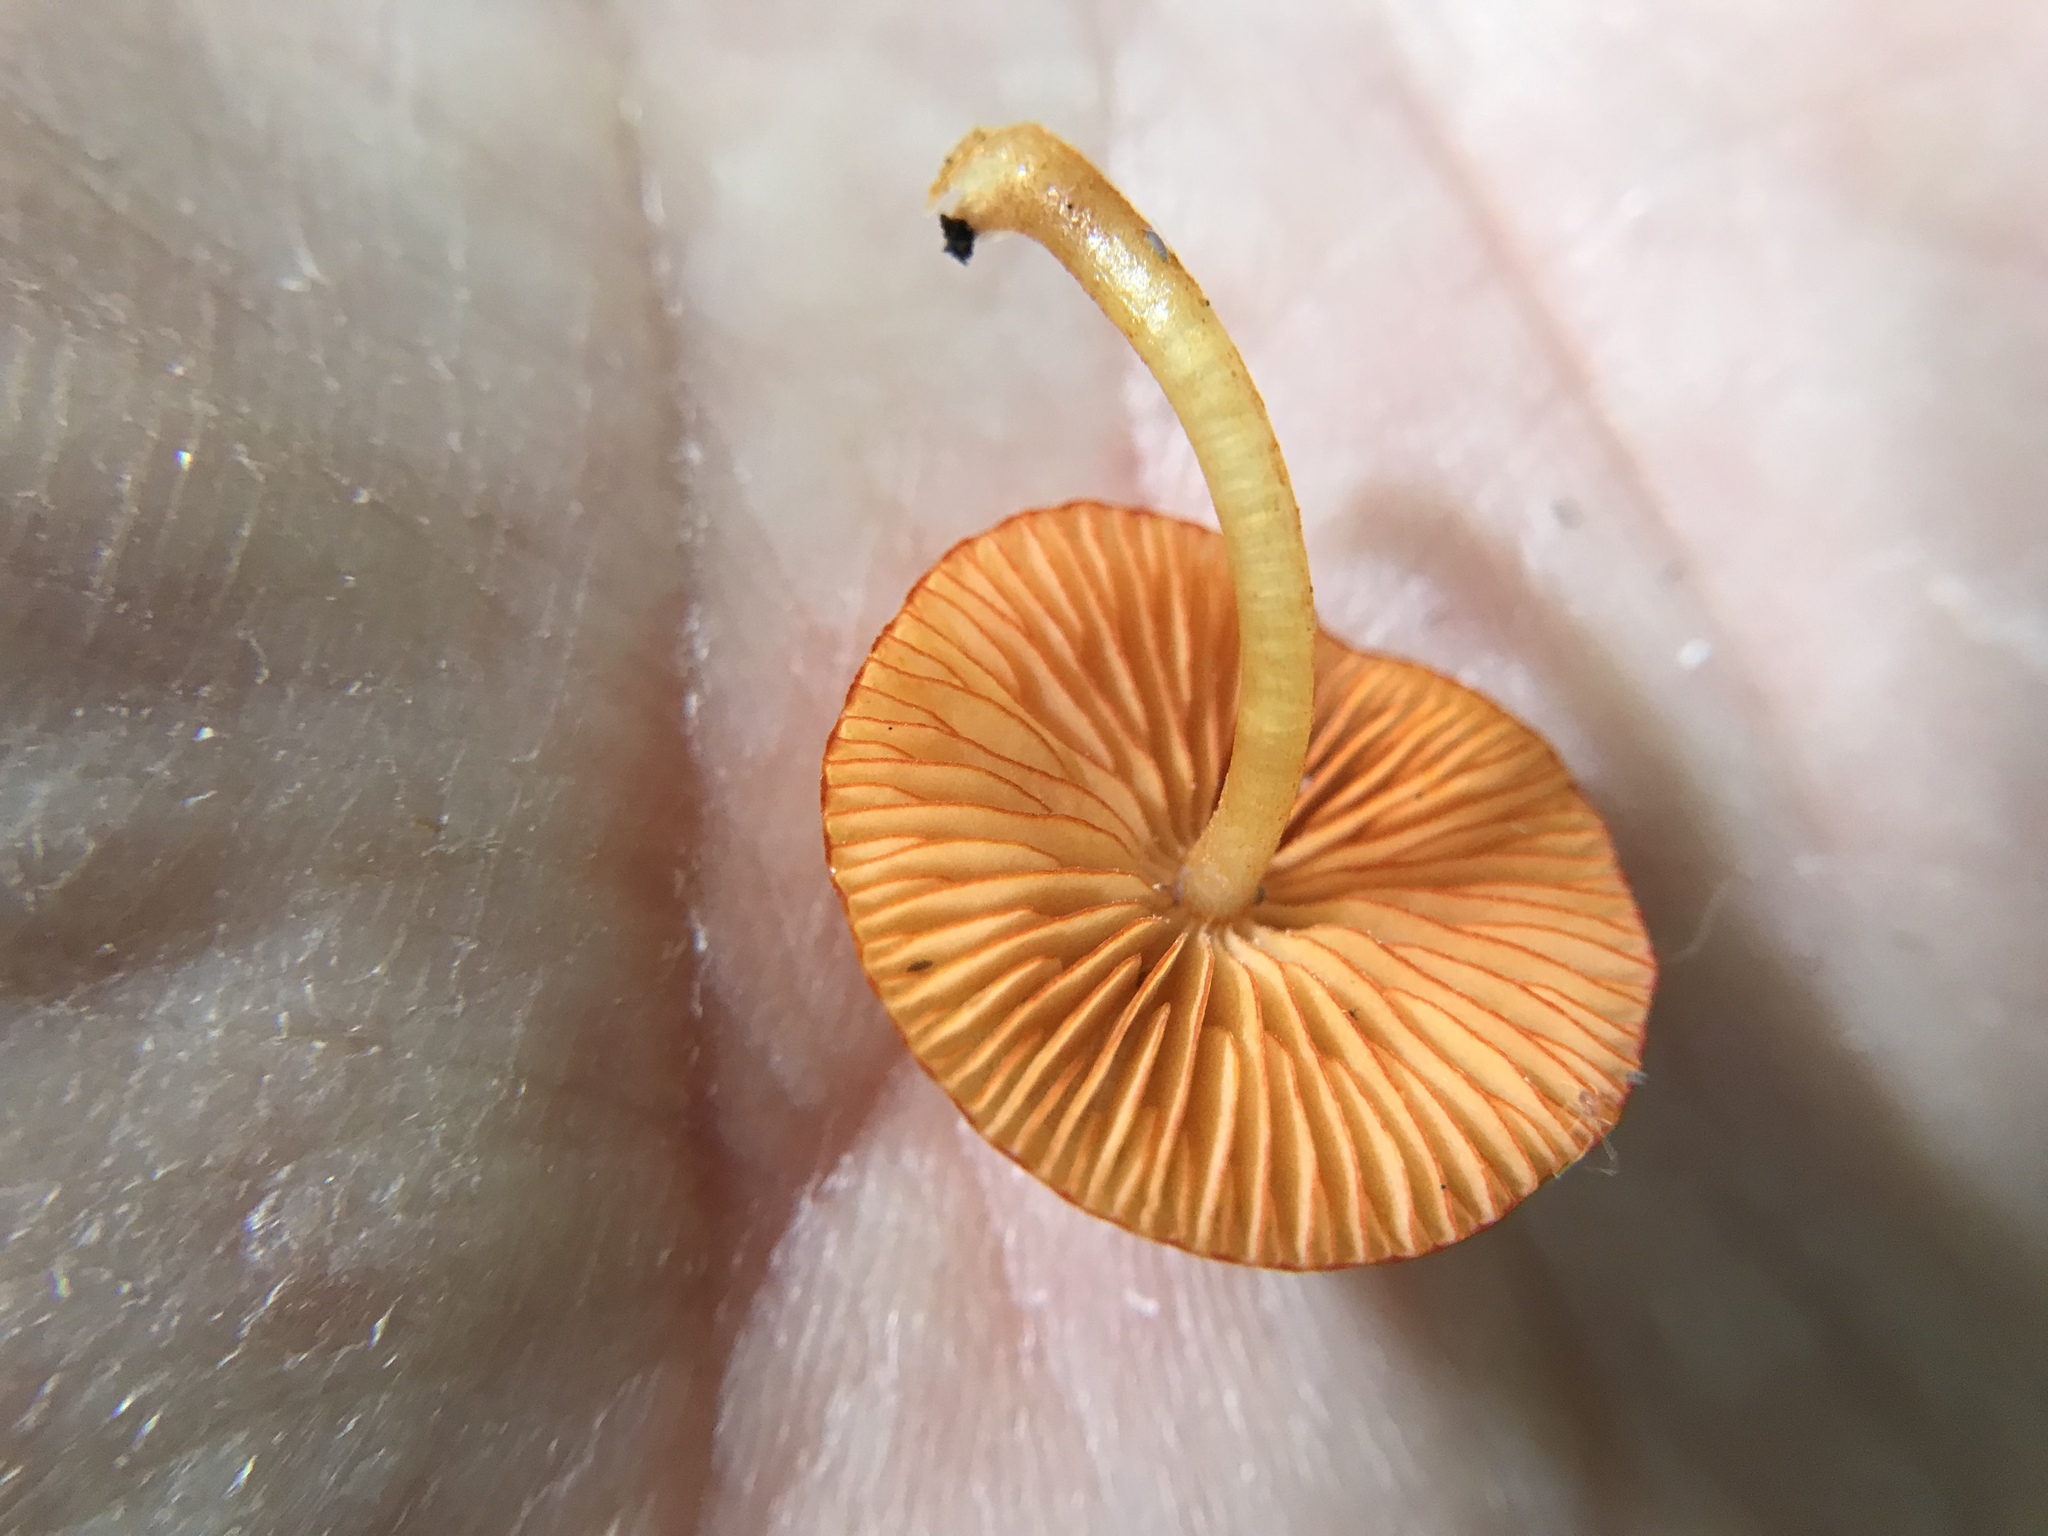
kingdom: Fungi
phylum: Basidiomycota
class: Agaricomycetes
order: Agaricales
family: Mycenaceae
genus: Mycena
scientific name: Mycena leaiana
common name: Orange mycena
